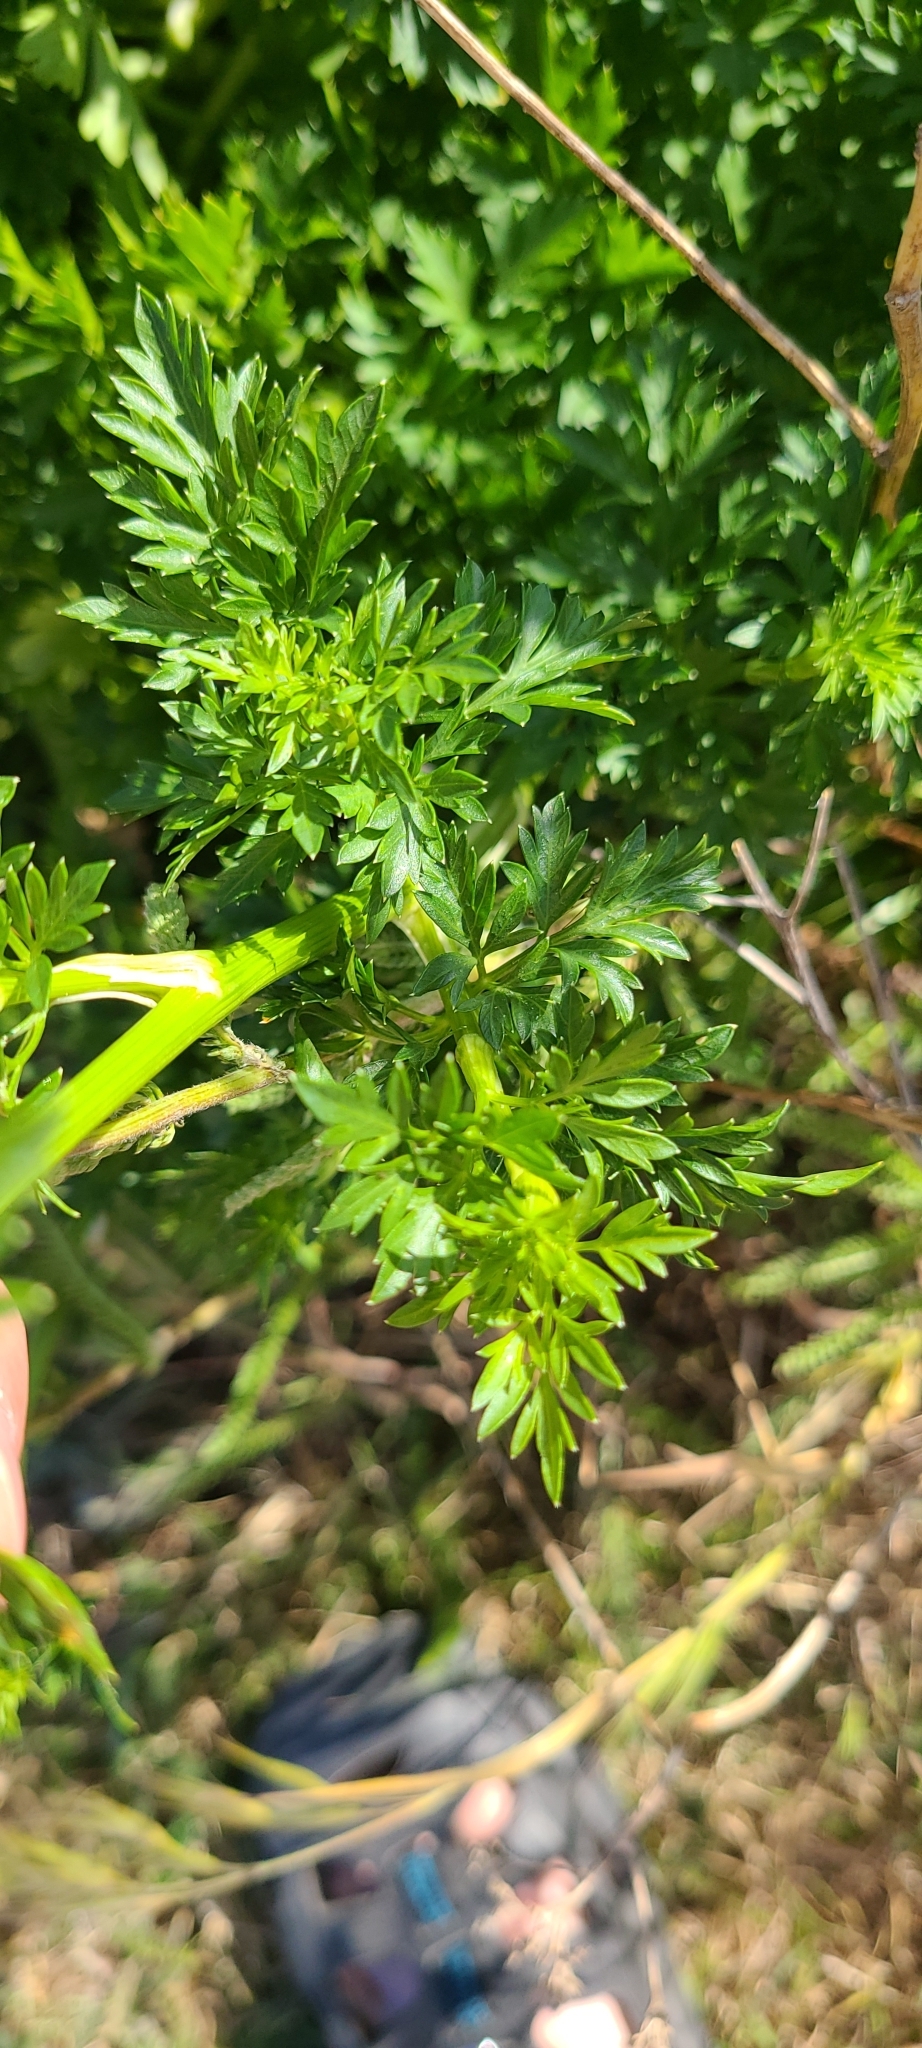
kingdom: Plantae
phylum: Tracheophyta
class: Magnoliopsida
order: Apiales
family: Apiaceae
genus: Petroselinum
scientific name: Petroselinum crispum
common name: Parsley
